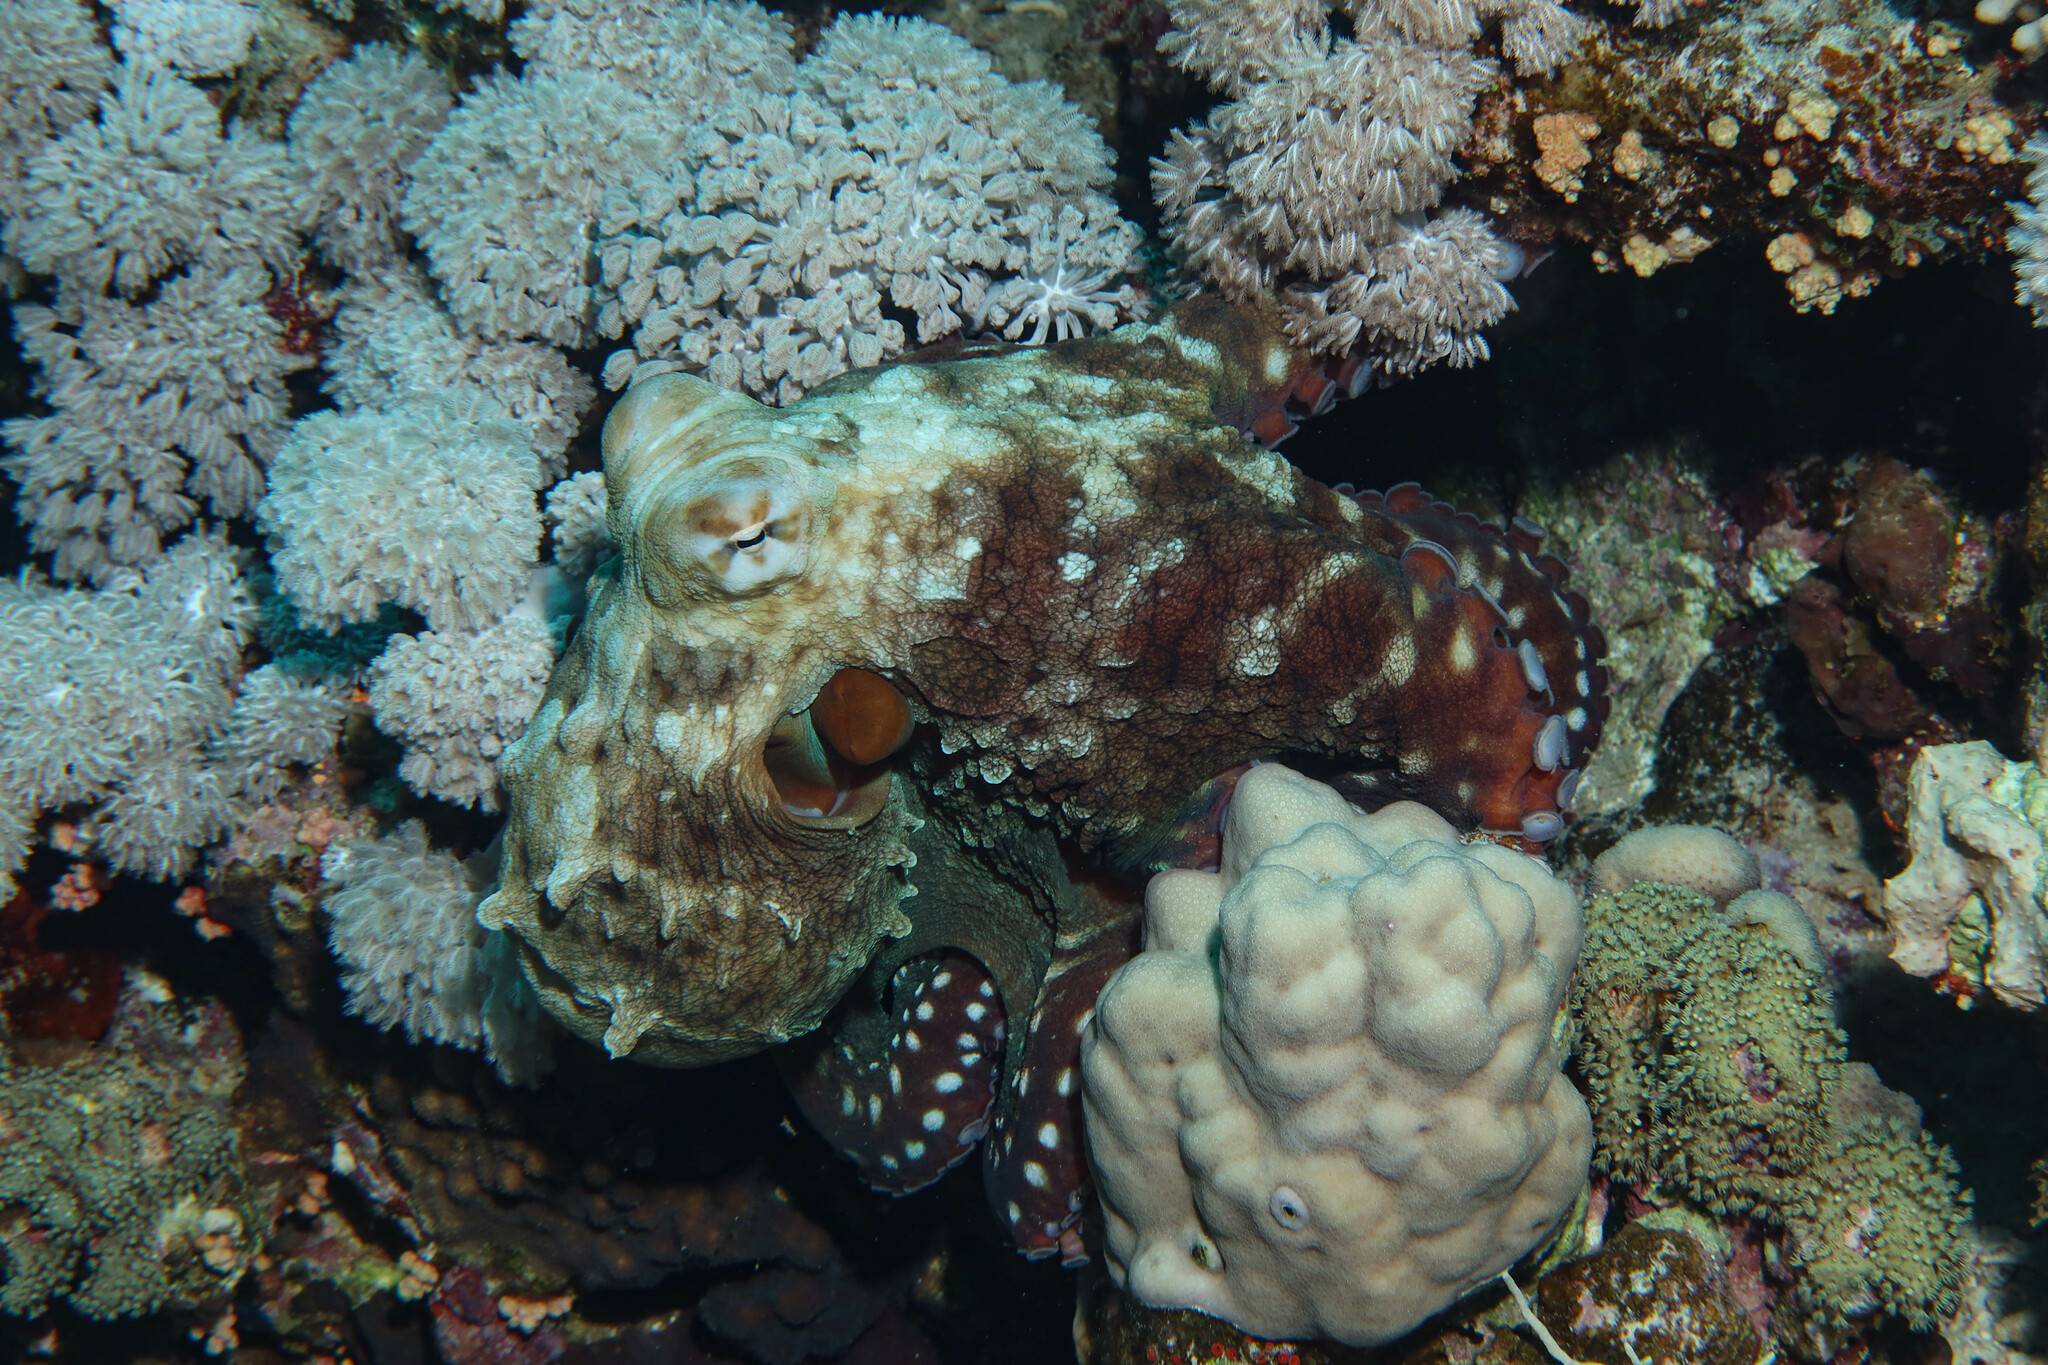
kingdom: Animalia
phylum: Mollusca
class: Cephalopoda
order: Octopoda
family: Octopodidae
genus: Octopus
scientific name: Octopus cyanea
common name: Cyane's octopus
